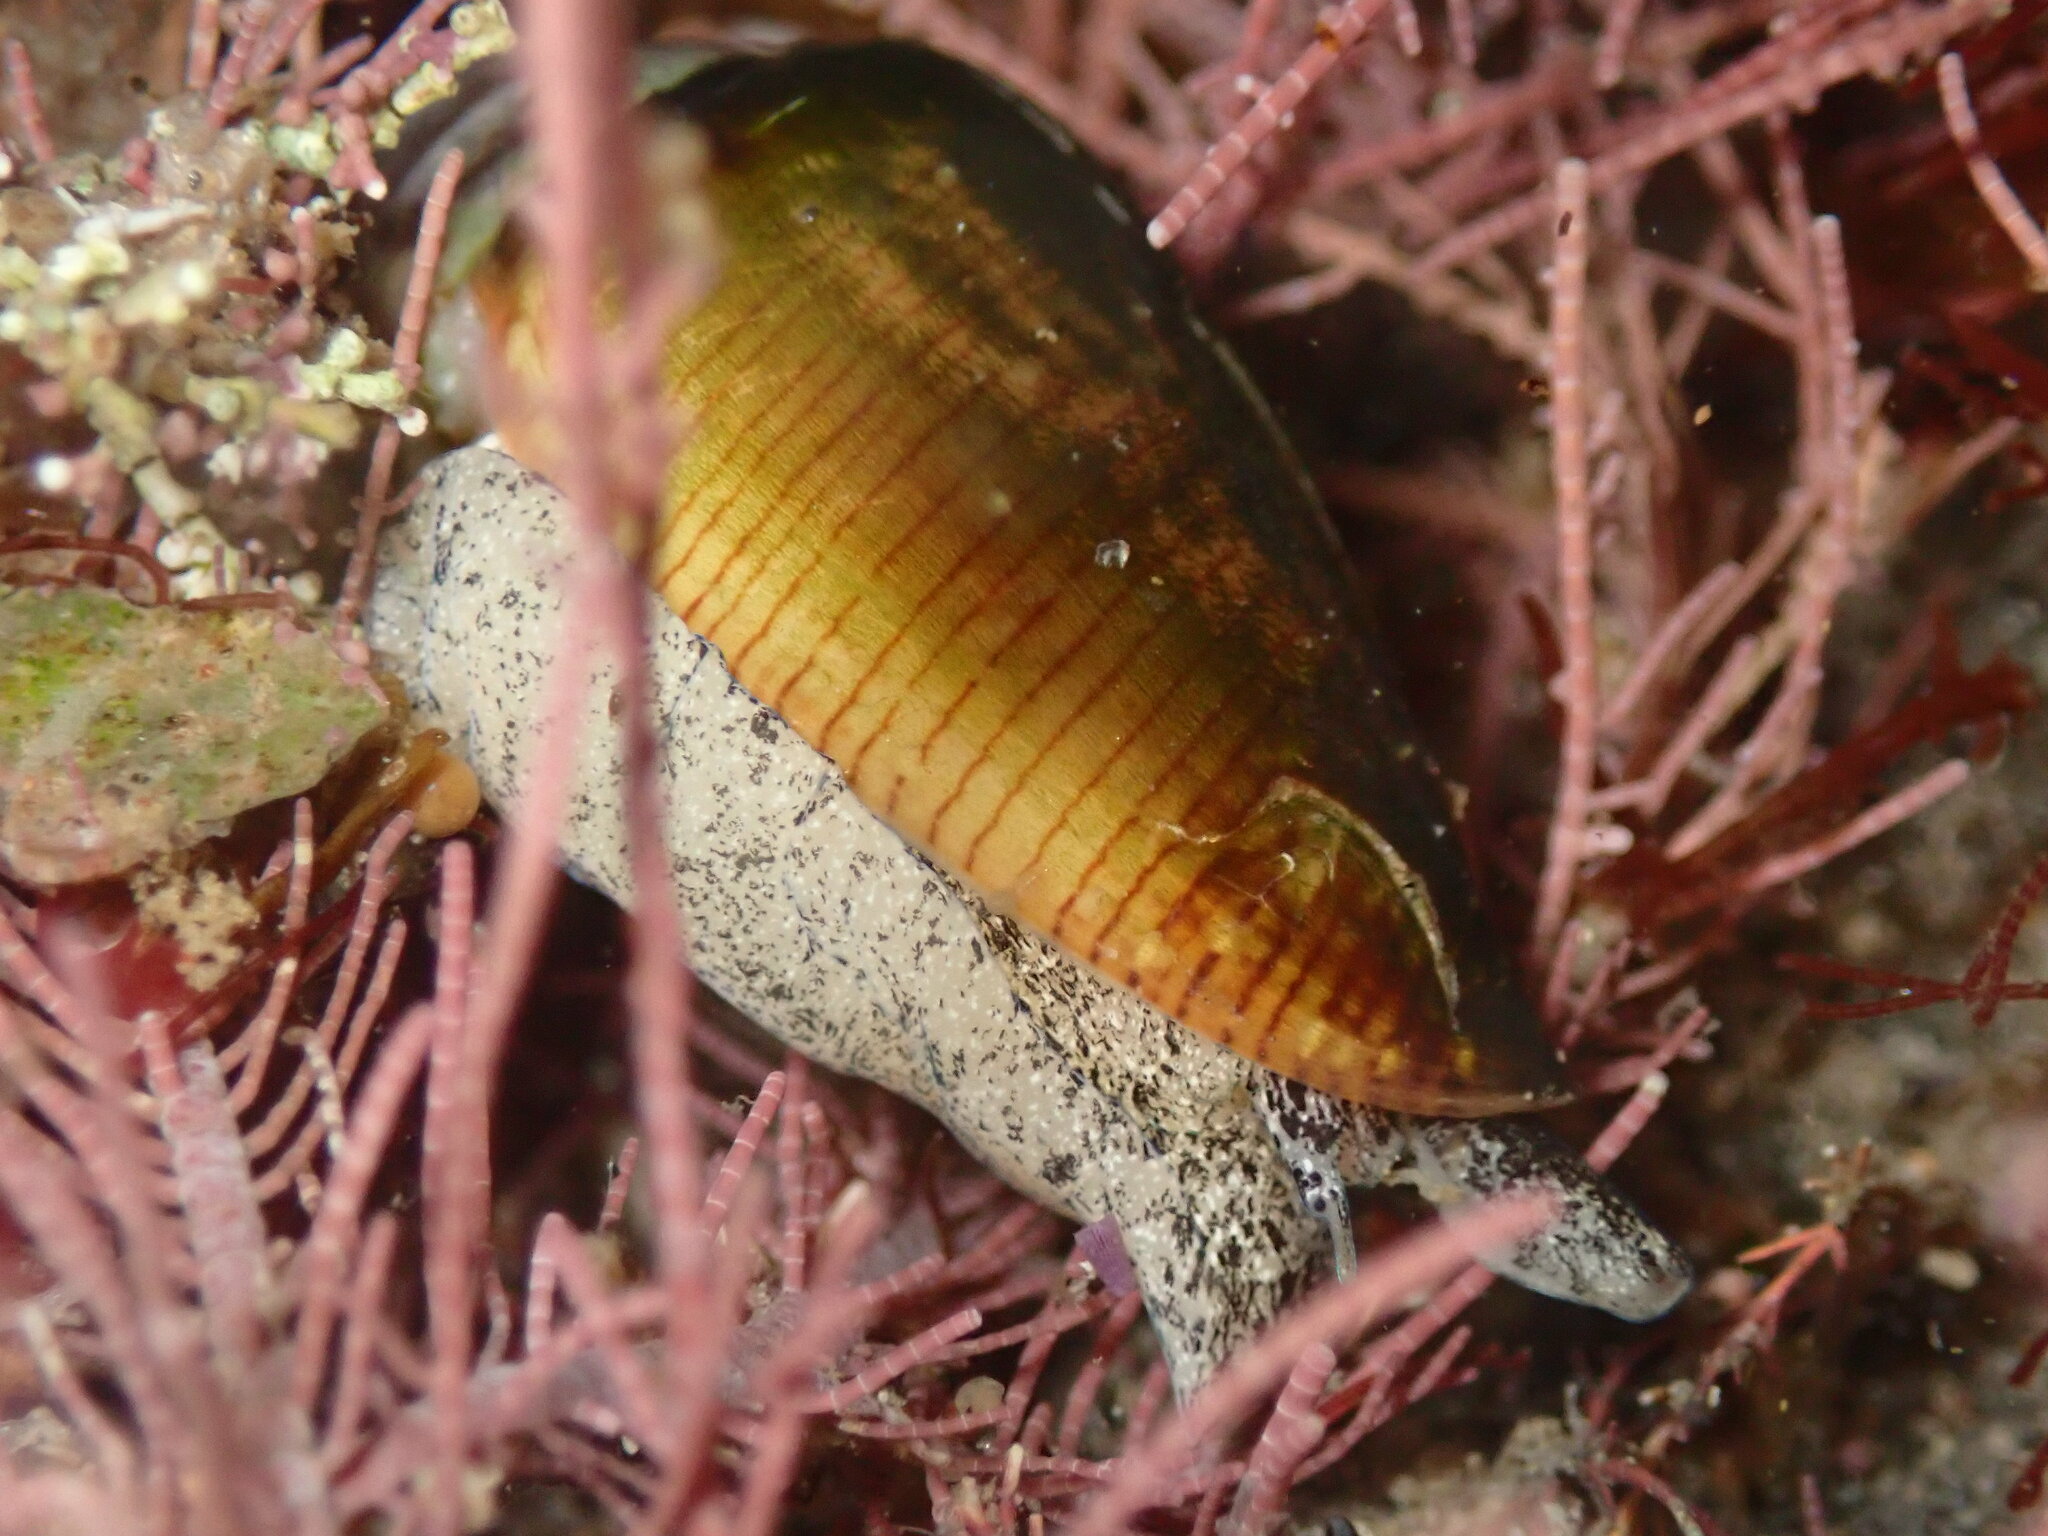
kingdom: Animalia
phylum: Mollusca
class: Gastropoda
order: Neogastropoda
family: Conidae
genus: Californiconus
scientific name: Californiconus californicus
